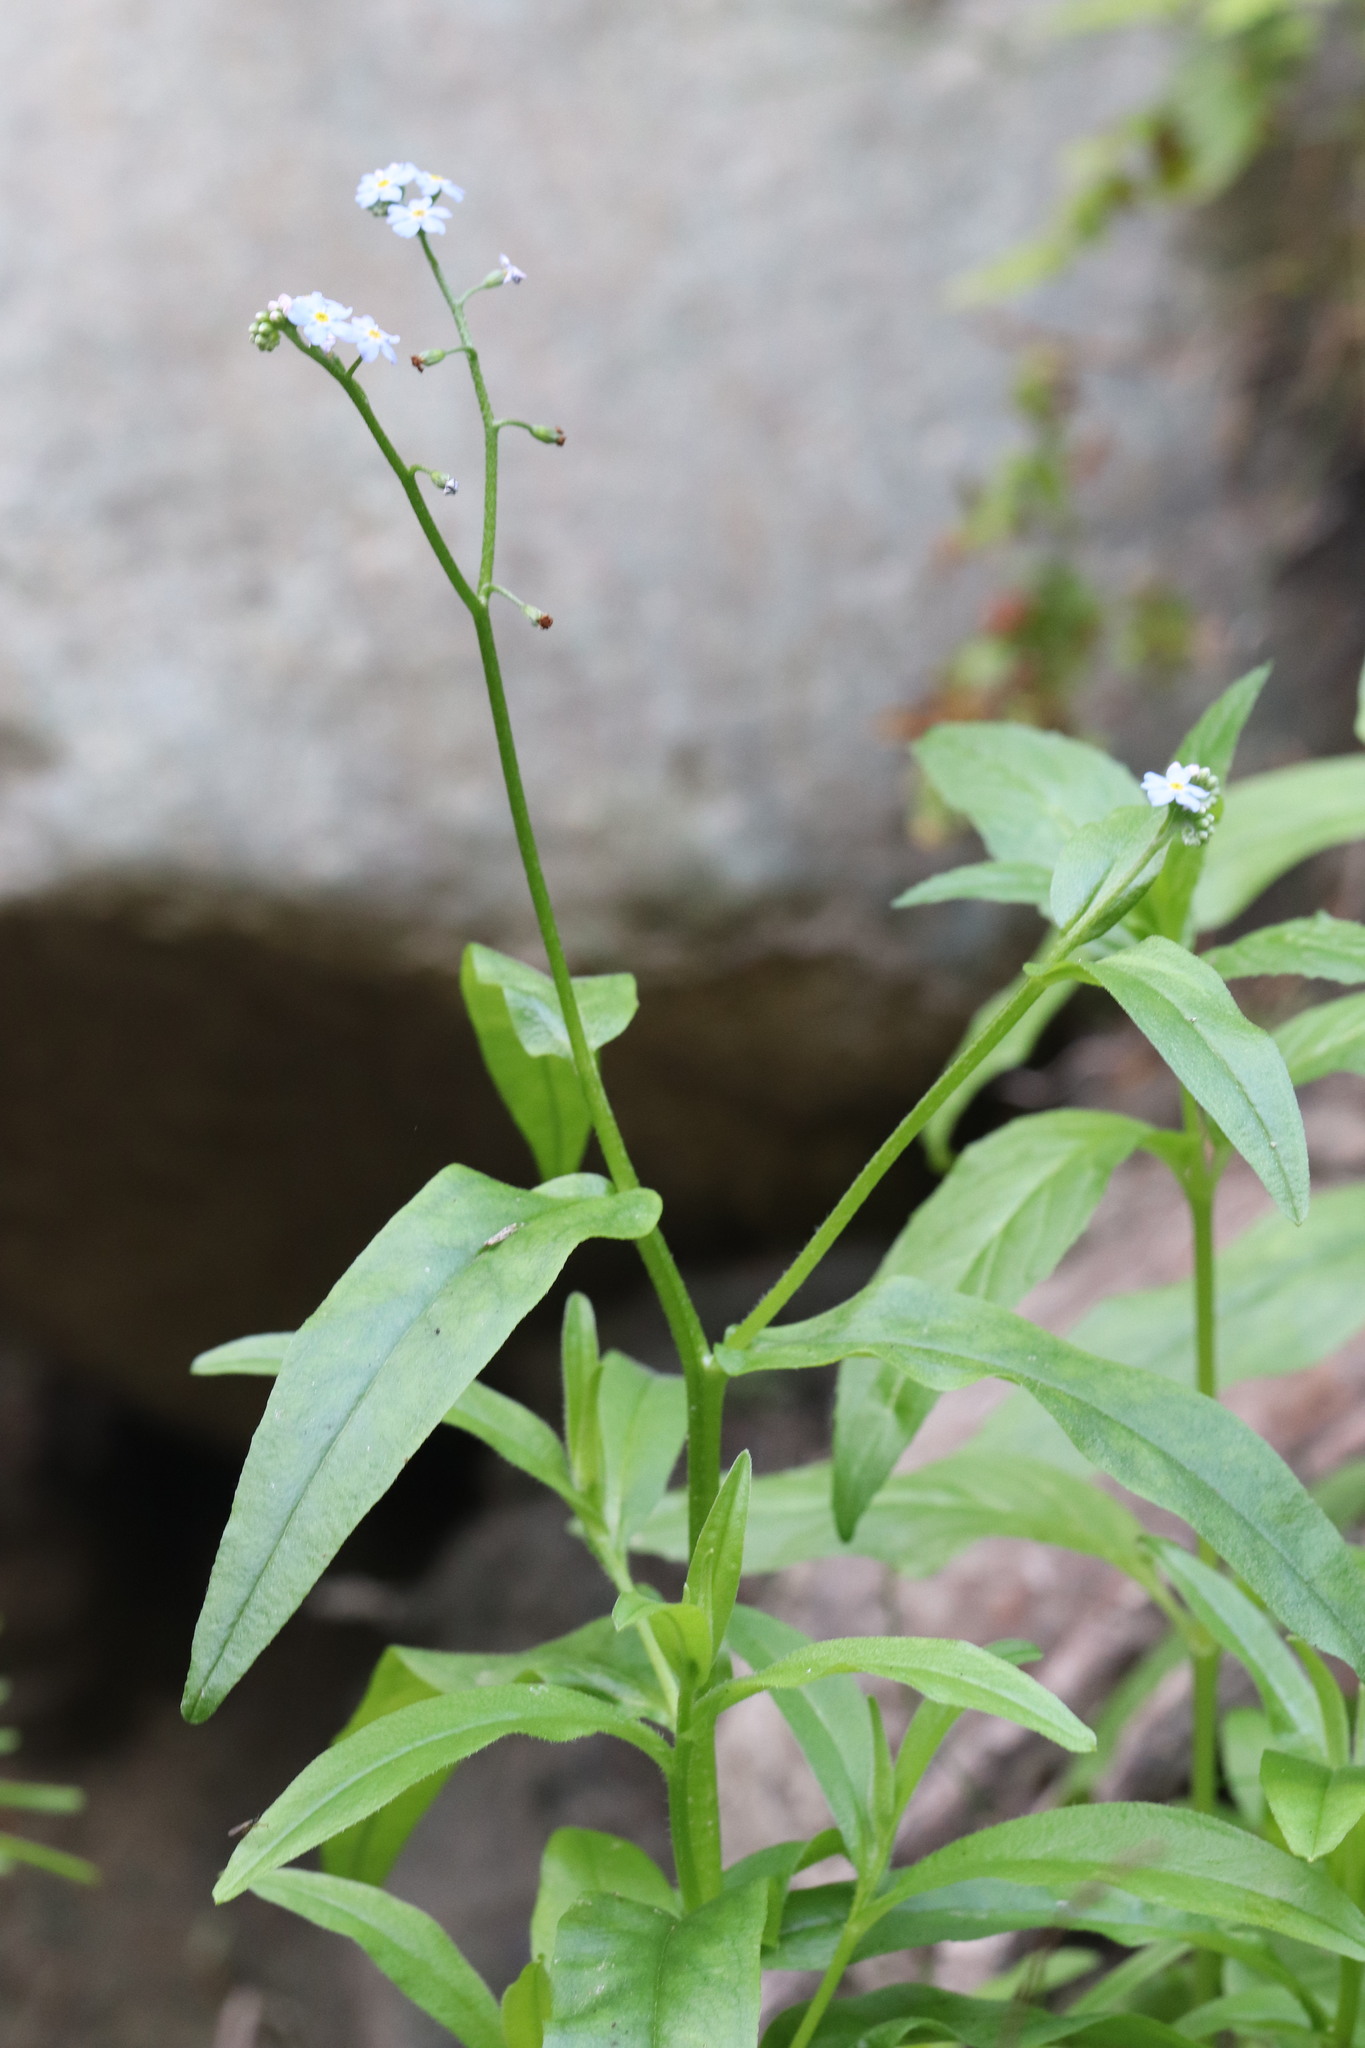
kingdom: Plantae
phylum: Tracheophyta
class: Magnoliopsida
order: Boraginales
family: Boraginaceae
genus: Myosotis
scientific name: Myosotis scorpioides
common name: Water forget-me-not
